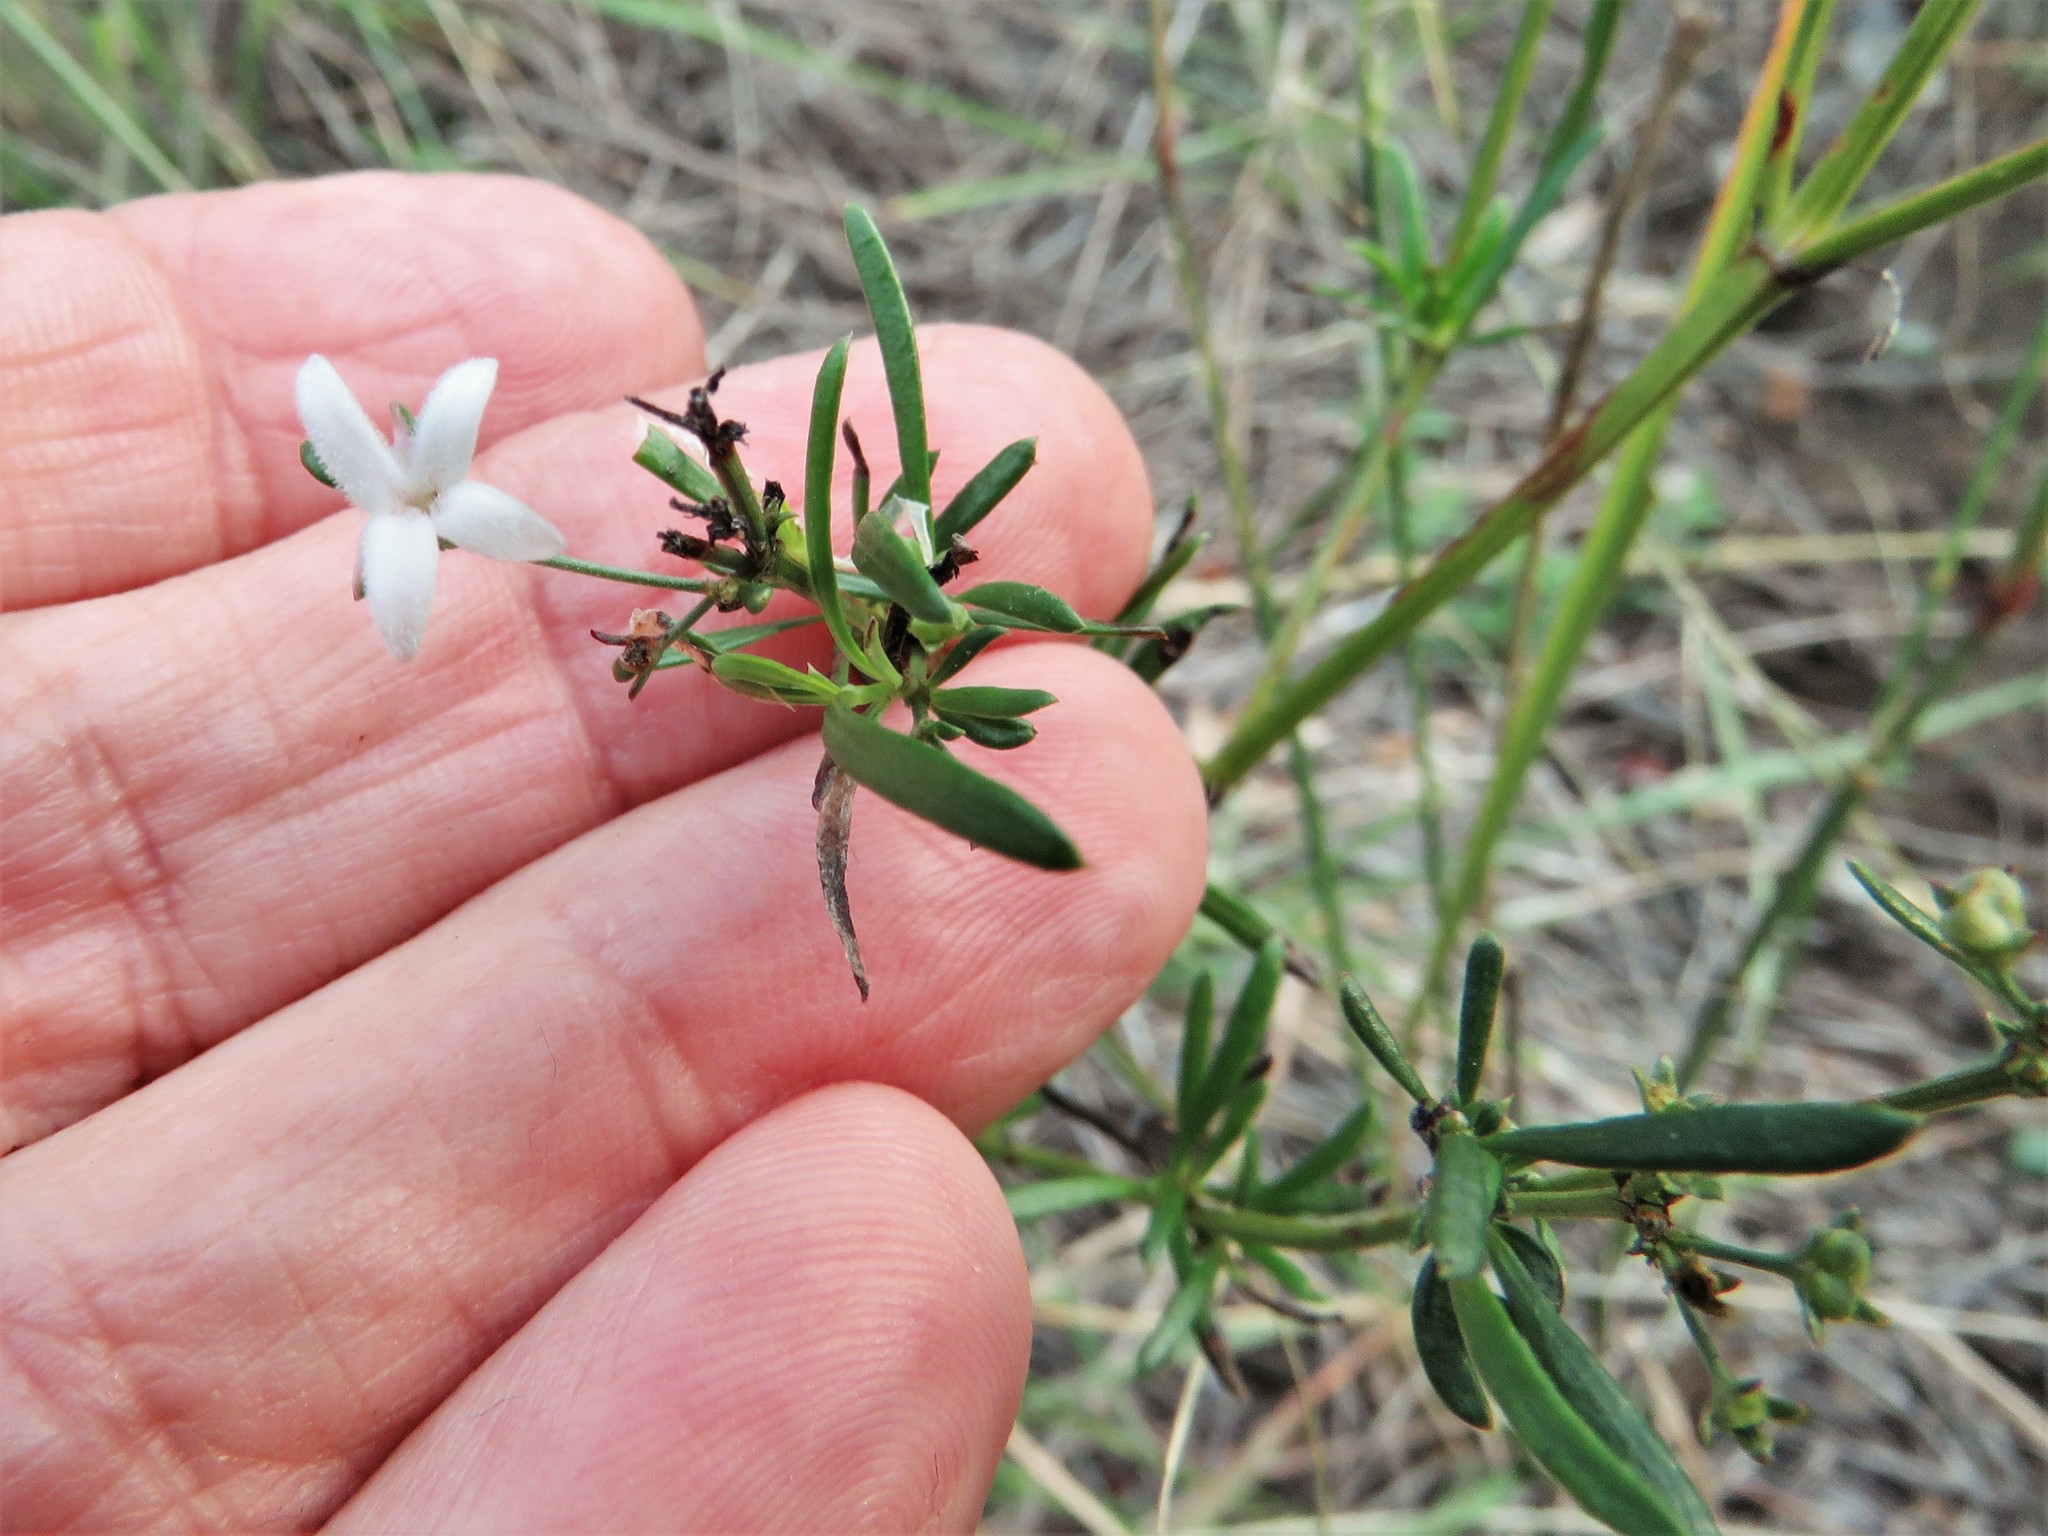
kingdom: Plantae
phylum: Tracheophyta
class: Magnoliopsida
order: Gentianales
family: Rubiaceae
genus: Stenaria
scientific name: Stenaria nigricans
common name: Diamondflowers
